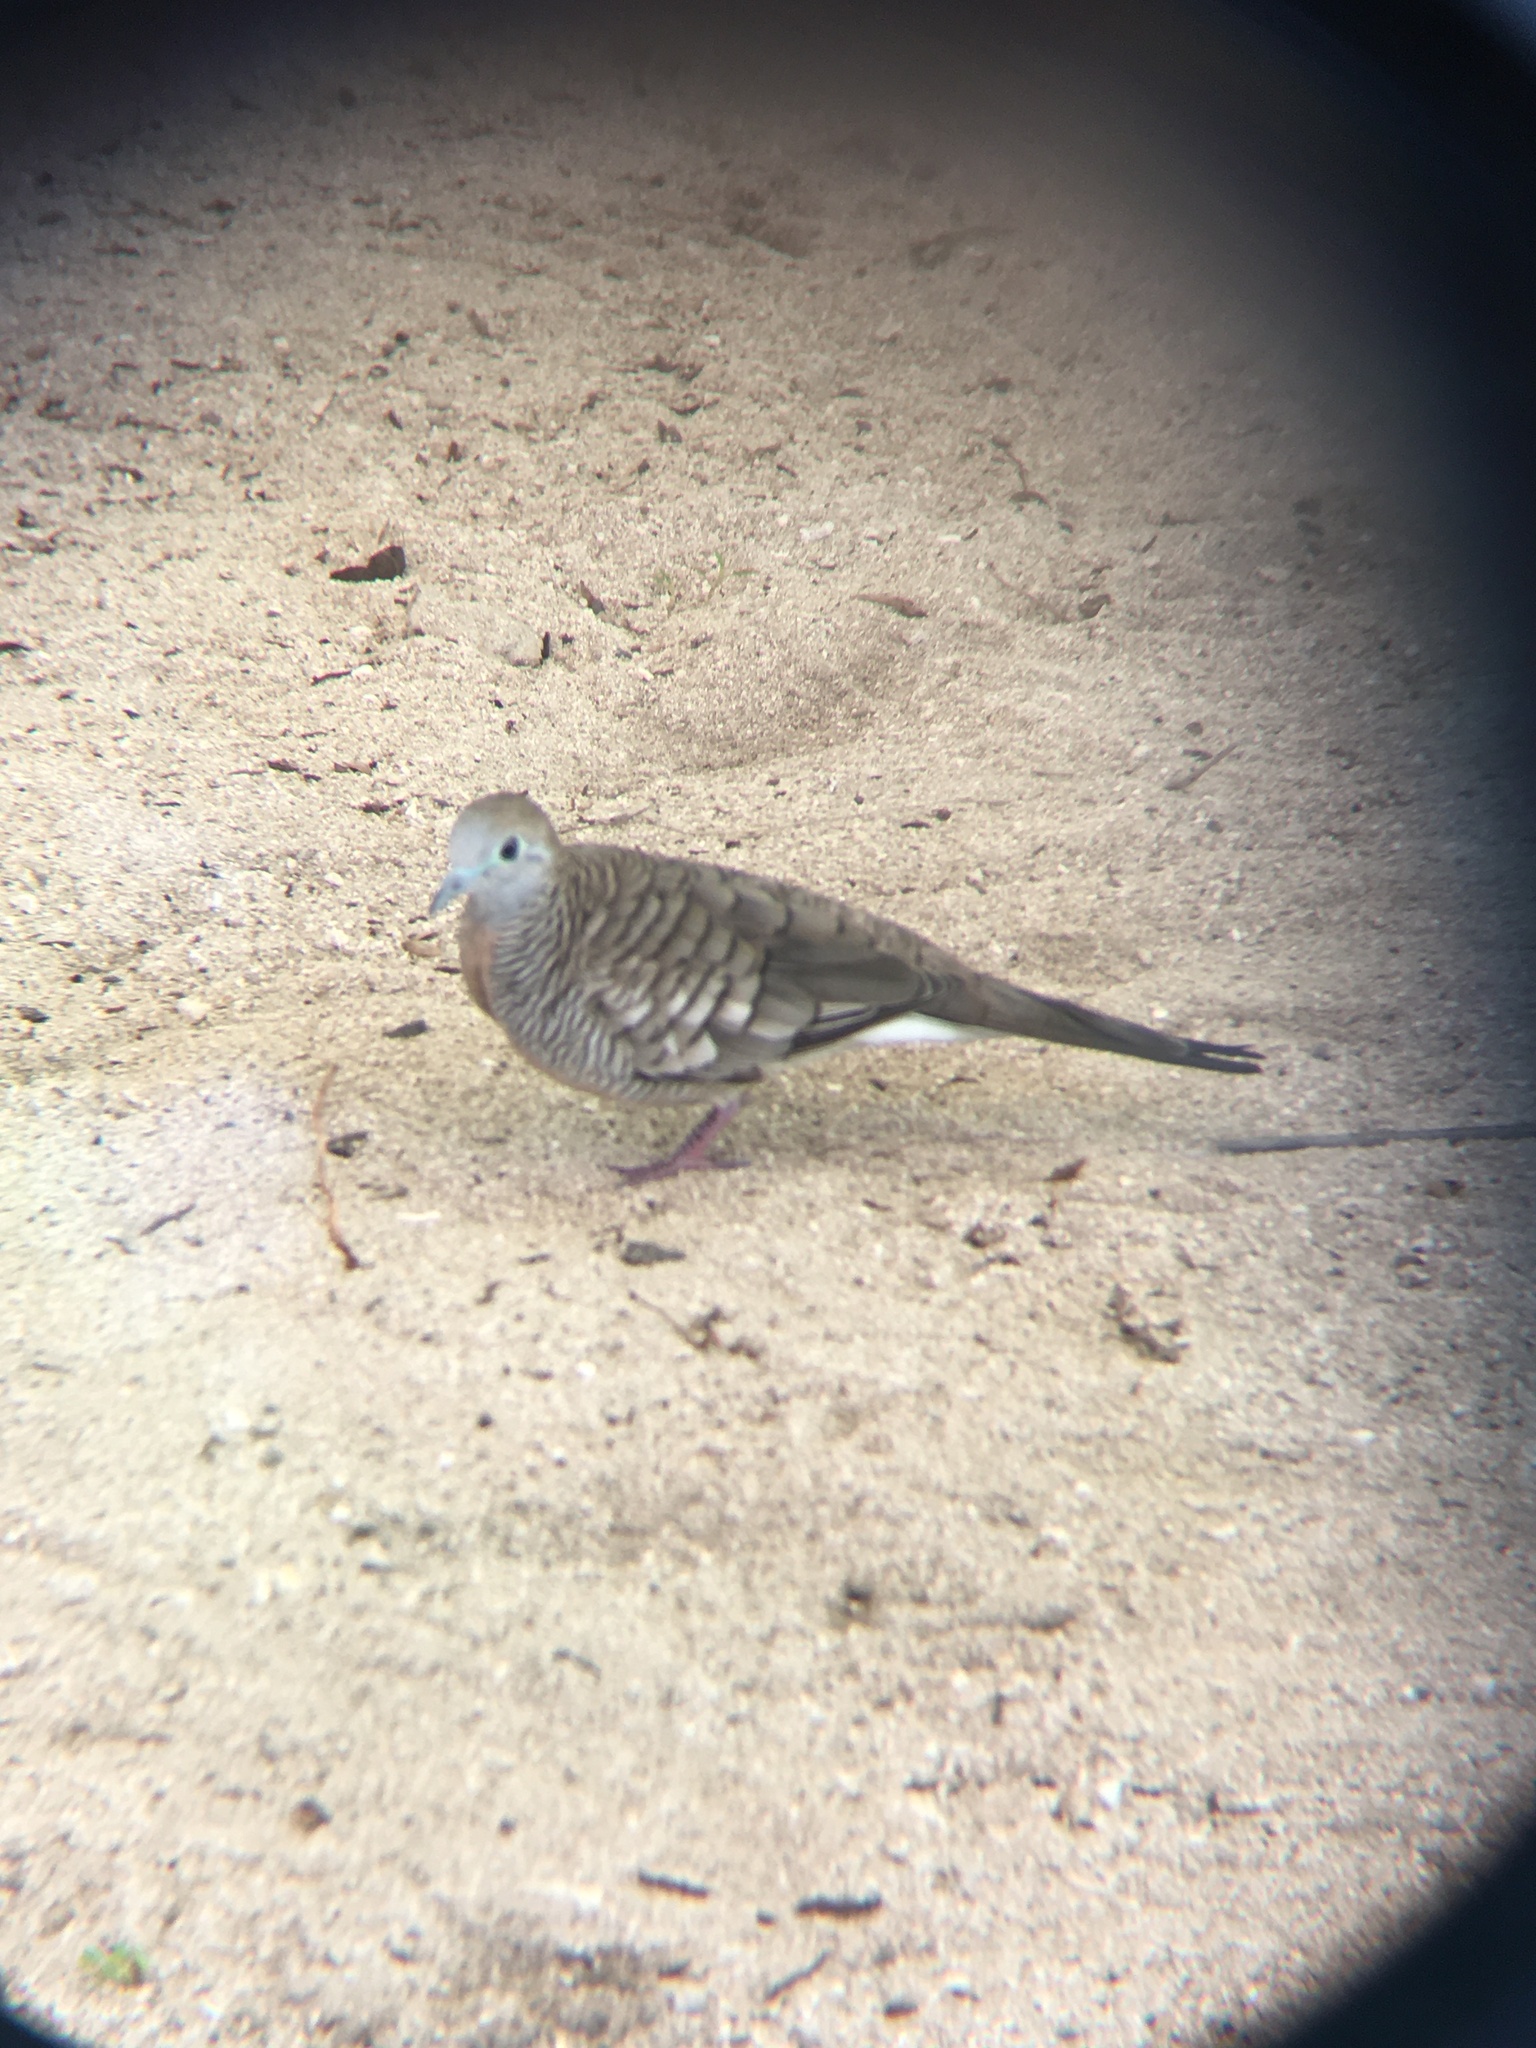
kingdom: Animalia
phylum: Chordata
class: Aves
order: Columbiformes
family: Columbidae
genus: Geopelia
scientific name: Geopelia striata
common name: Zebra dove
